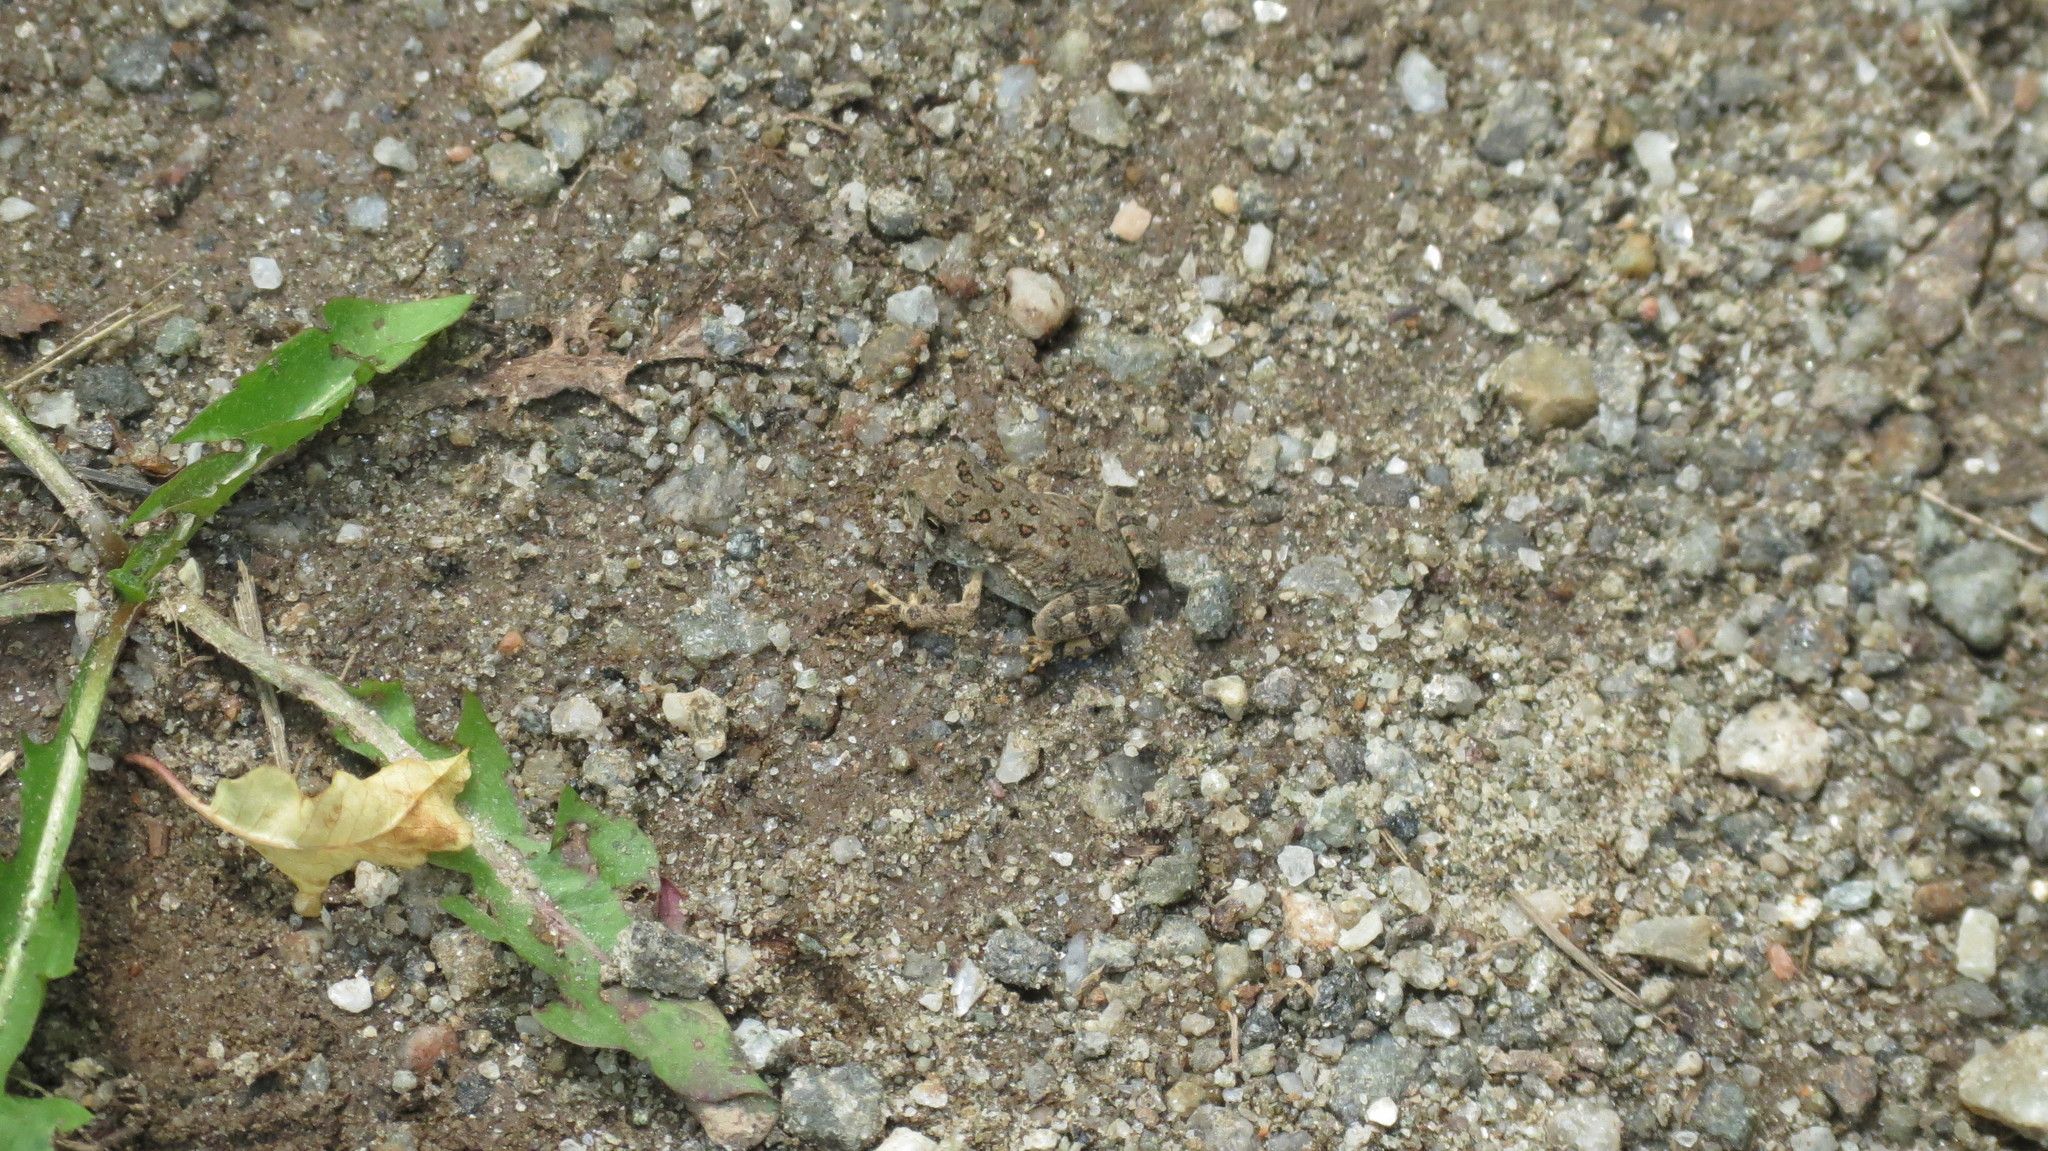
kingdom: Animalia
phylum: Chordata
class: Amphibia
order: Anura
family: Bufonidae
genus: Anaxyrus
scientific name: Anaxyrus americanus
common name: American toad
